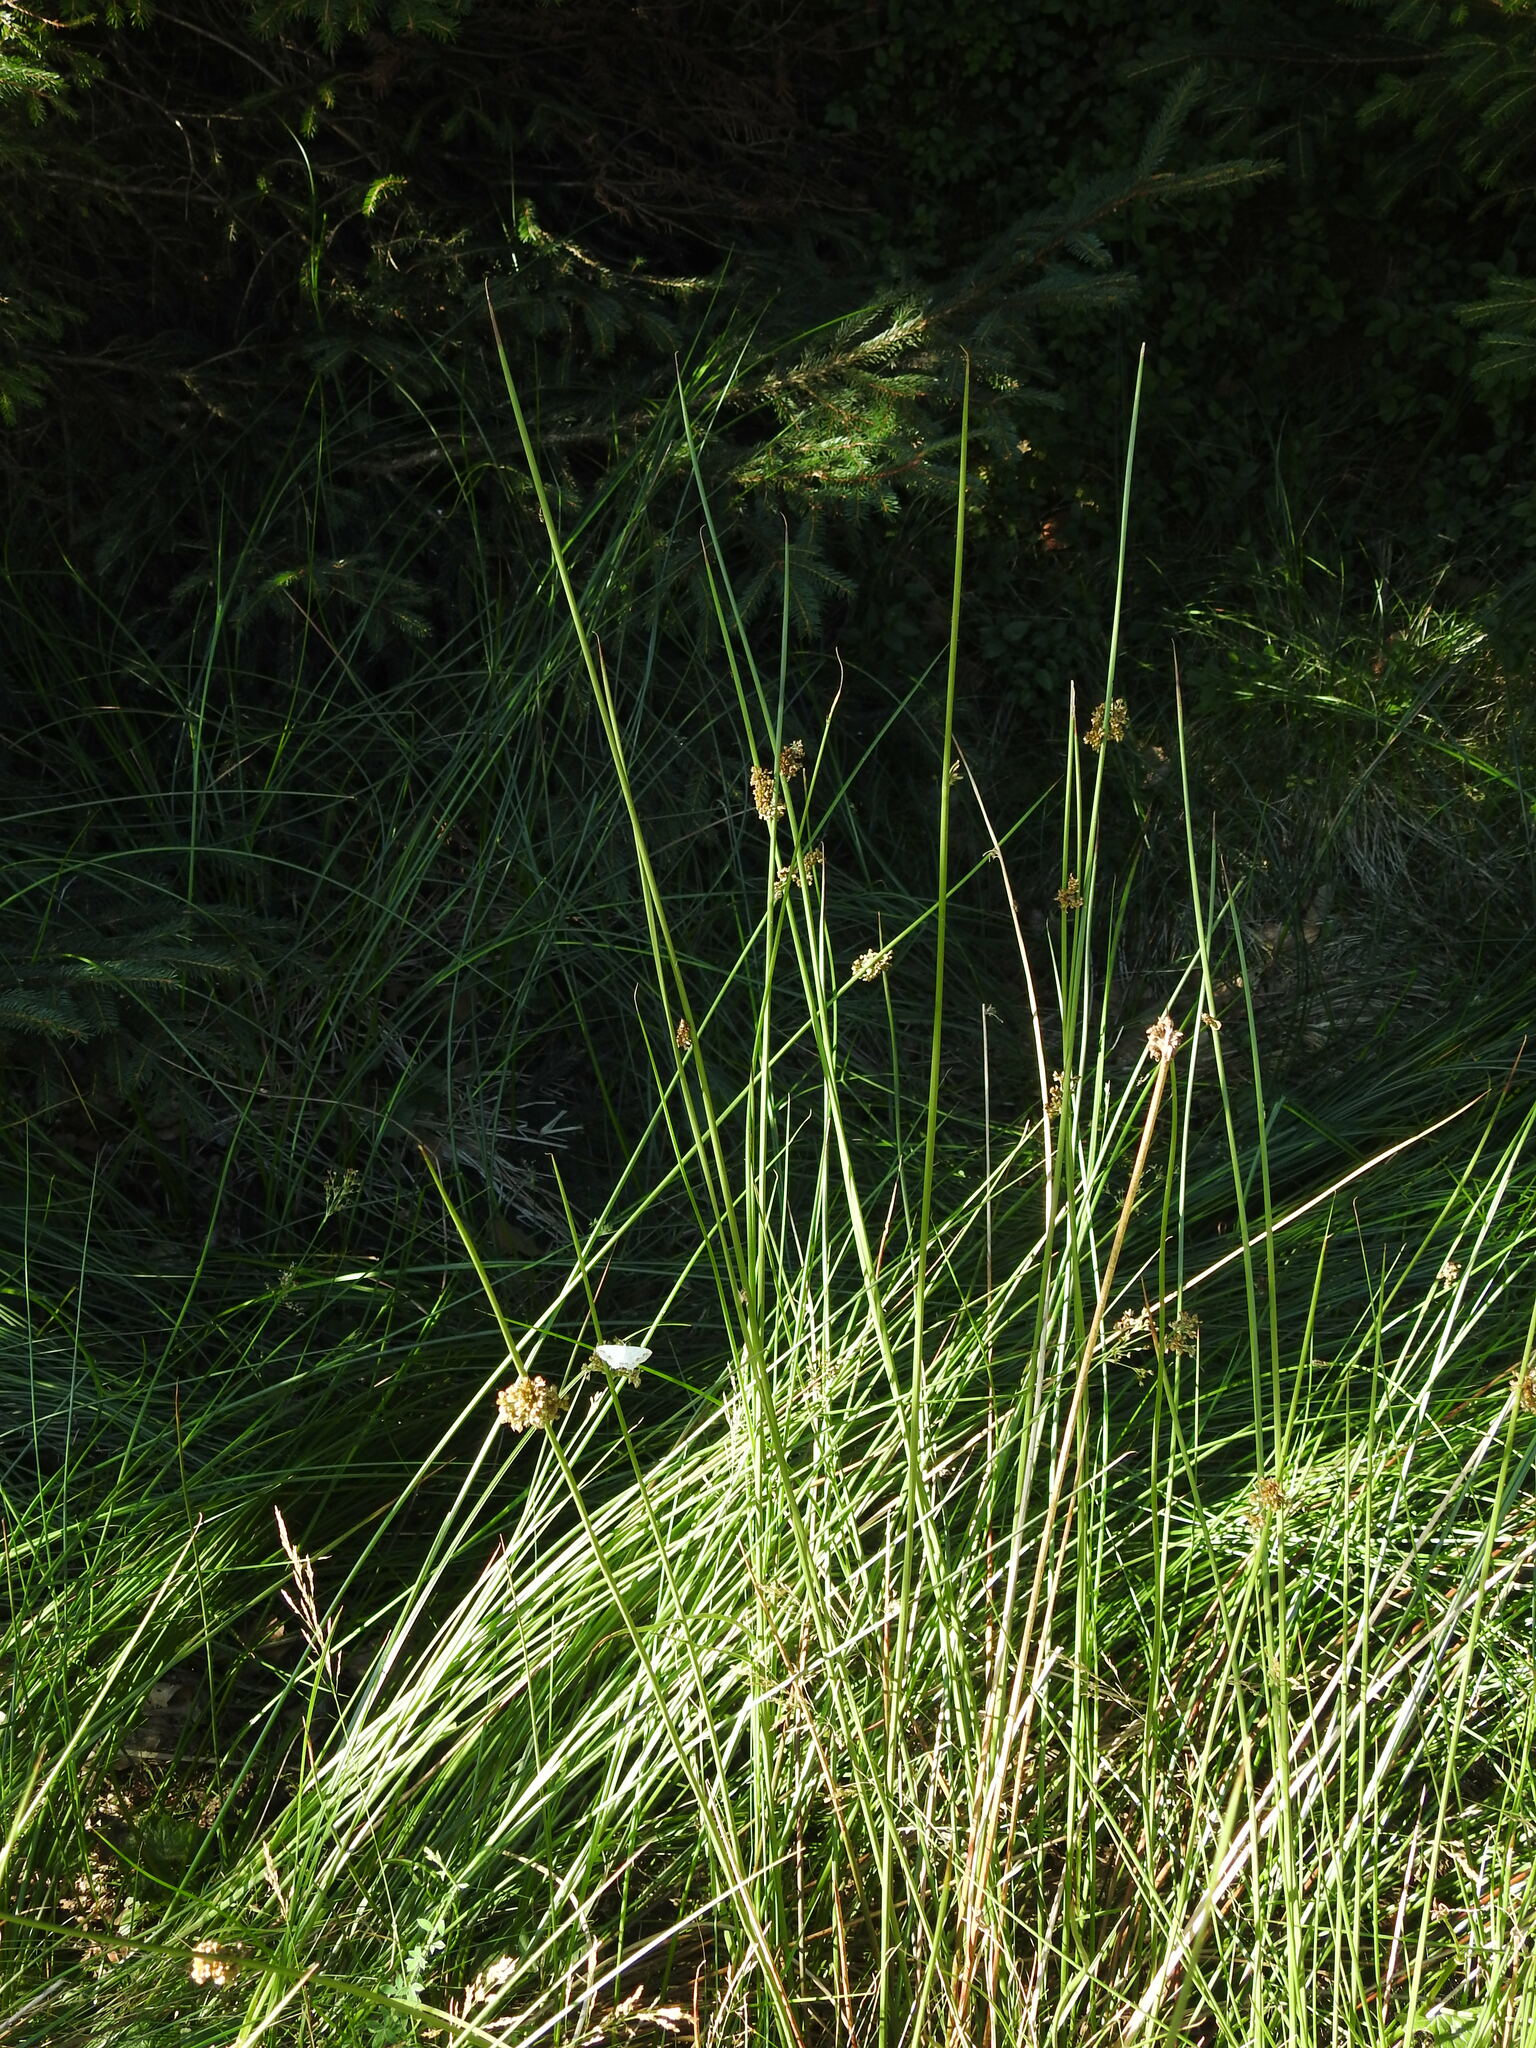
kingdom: Plantae
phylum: Tracheophyta
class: Liliopsida
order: Poales
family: Juncaceae
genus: Juncus
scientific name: Juncus effusus
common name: Soft rush
